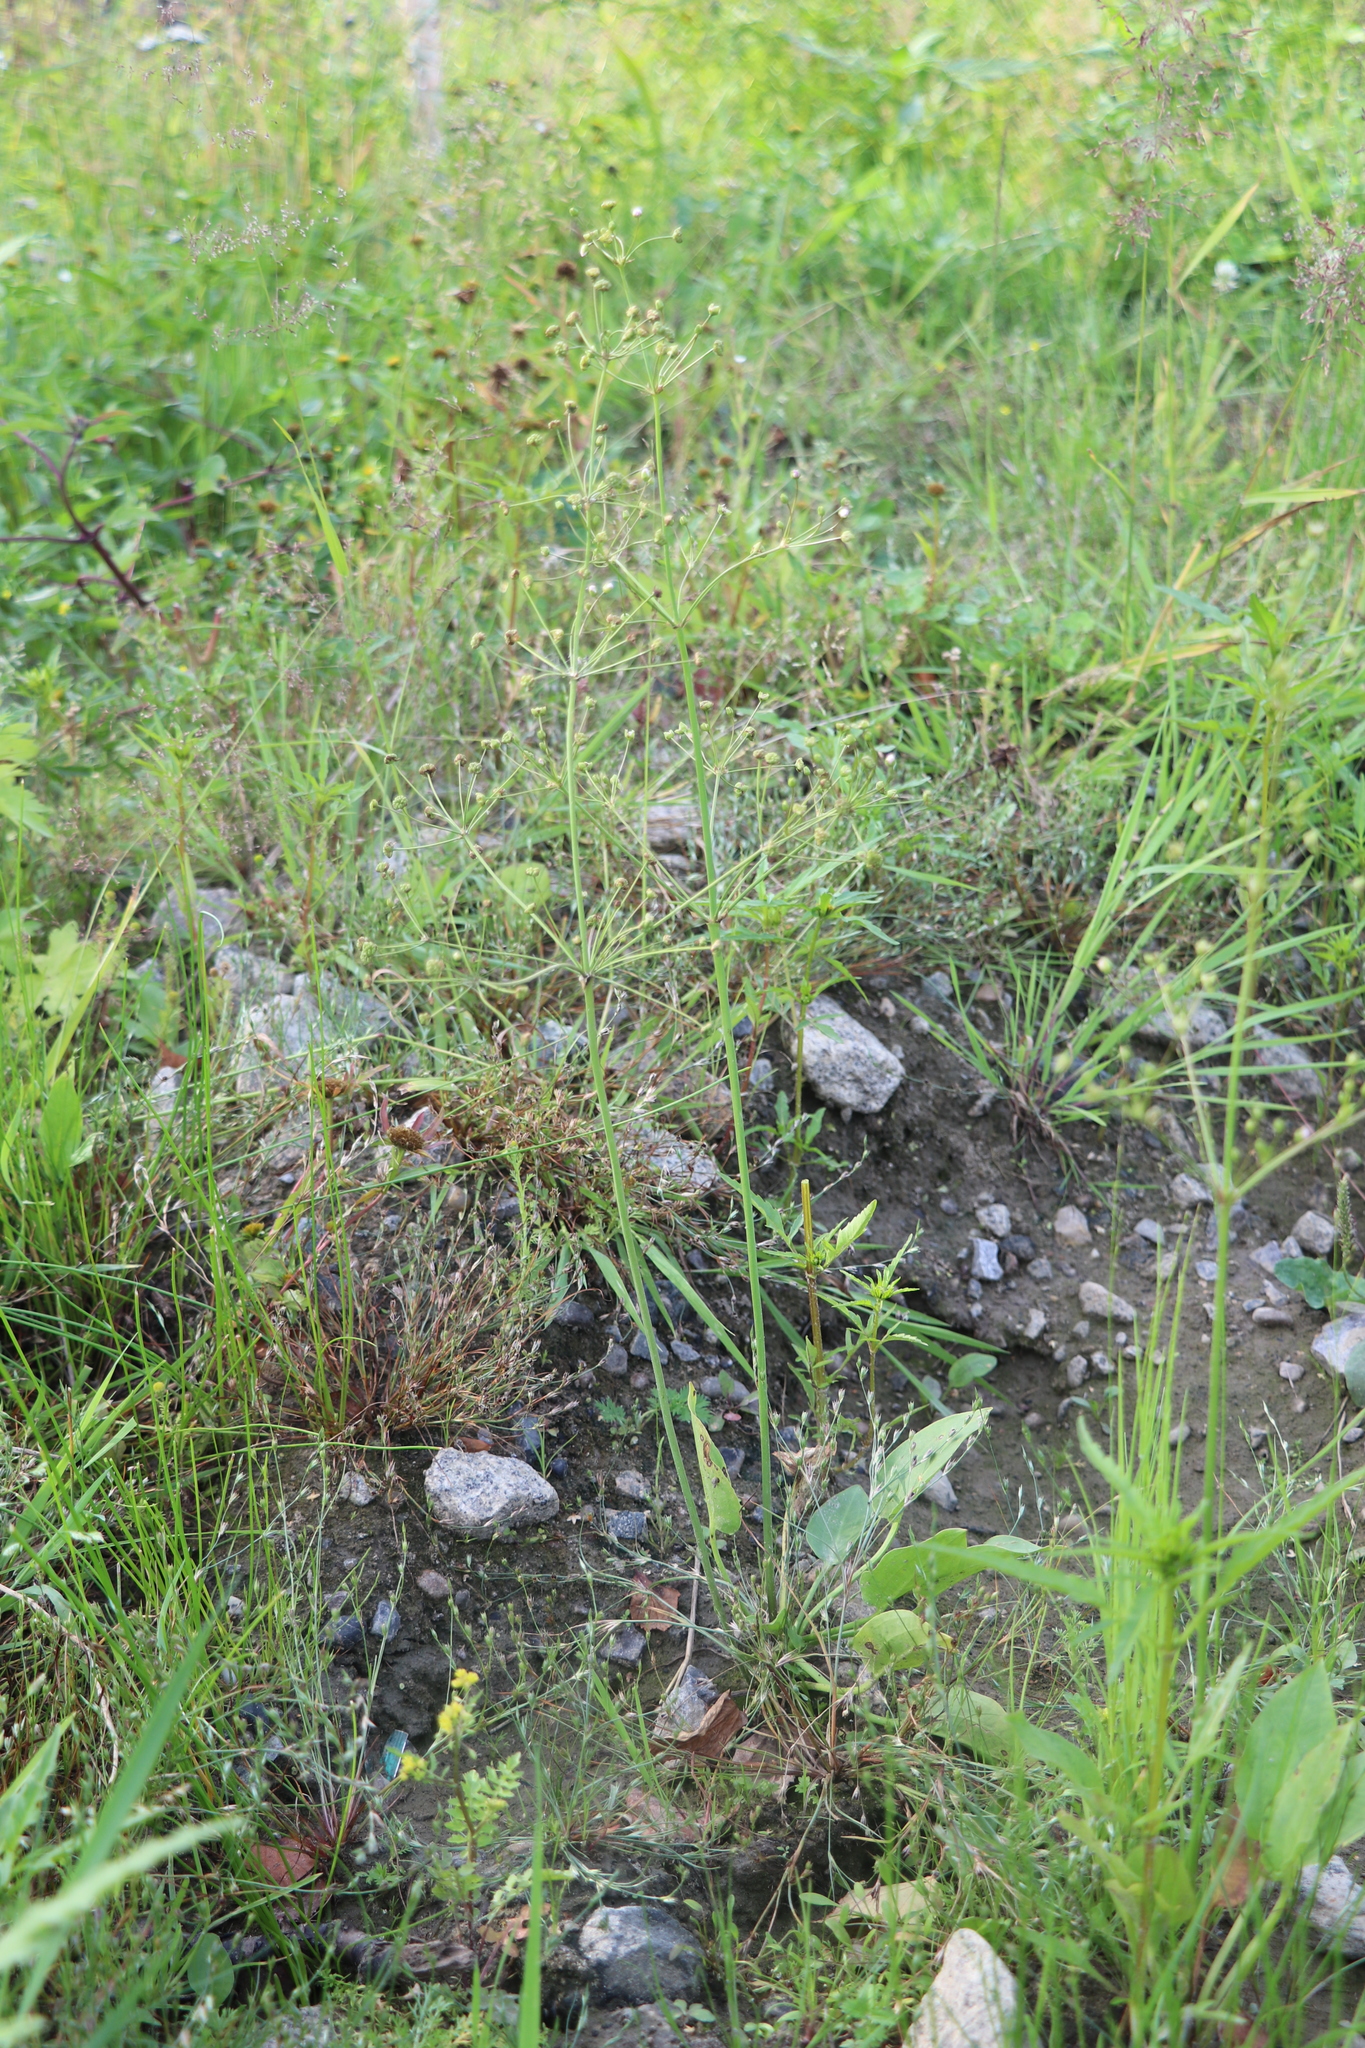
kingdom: Plantae
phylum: Tracheophyta
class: Liliopsida
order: Alismatales
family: Alismataceae
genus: Alisma
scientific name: Alisma plantago-aquatica
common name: Water-plantain
